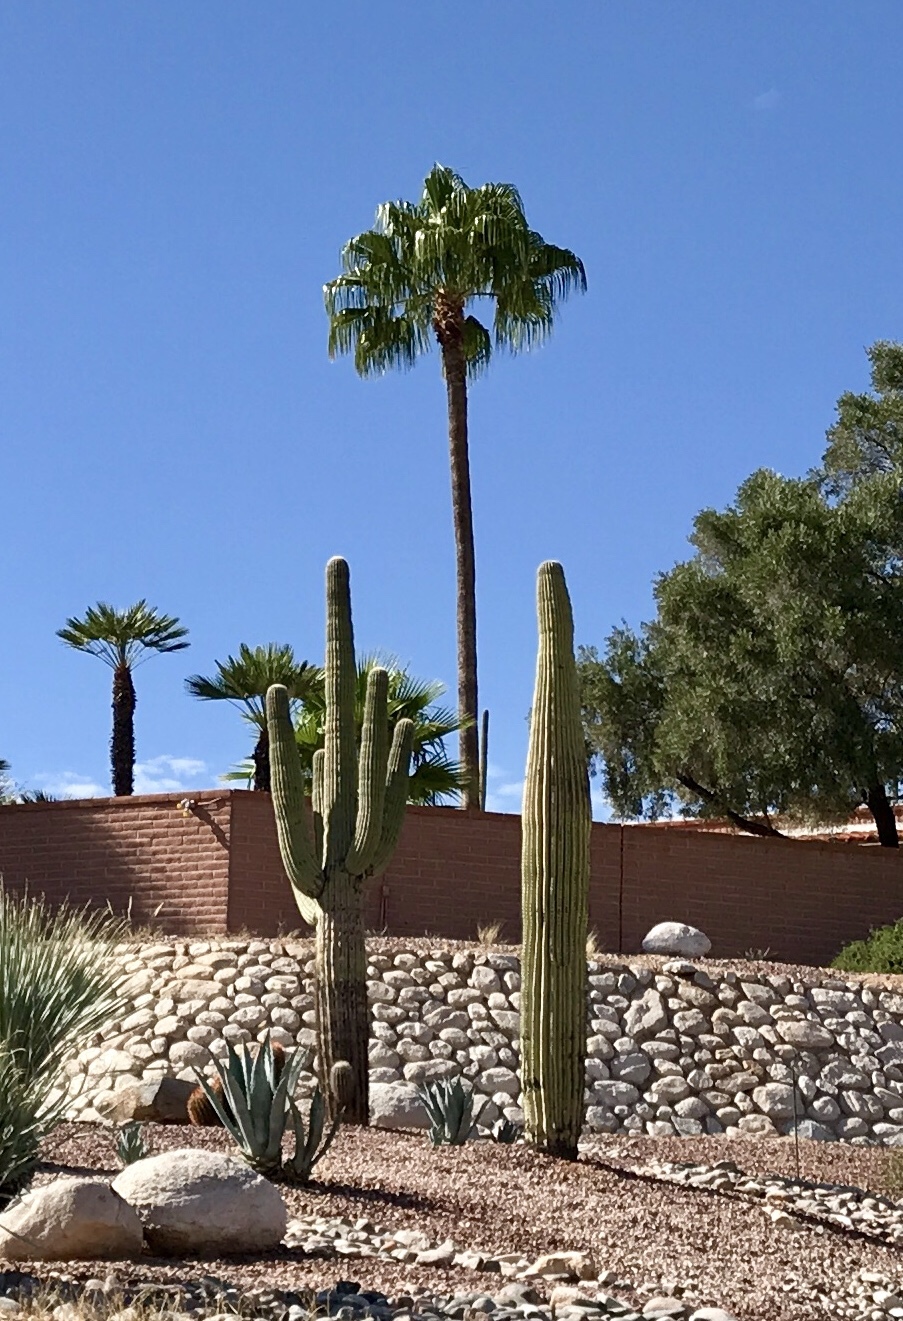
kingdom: Plantae
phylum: Tracheophyta
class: Magnoliopsida
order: Caryophyllales
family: Cactaceae
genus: Carnegiea
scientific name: Carnegiea gigantea
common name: Saguaro
